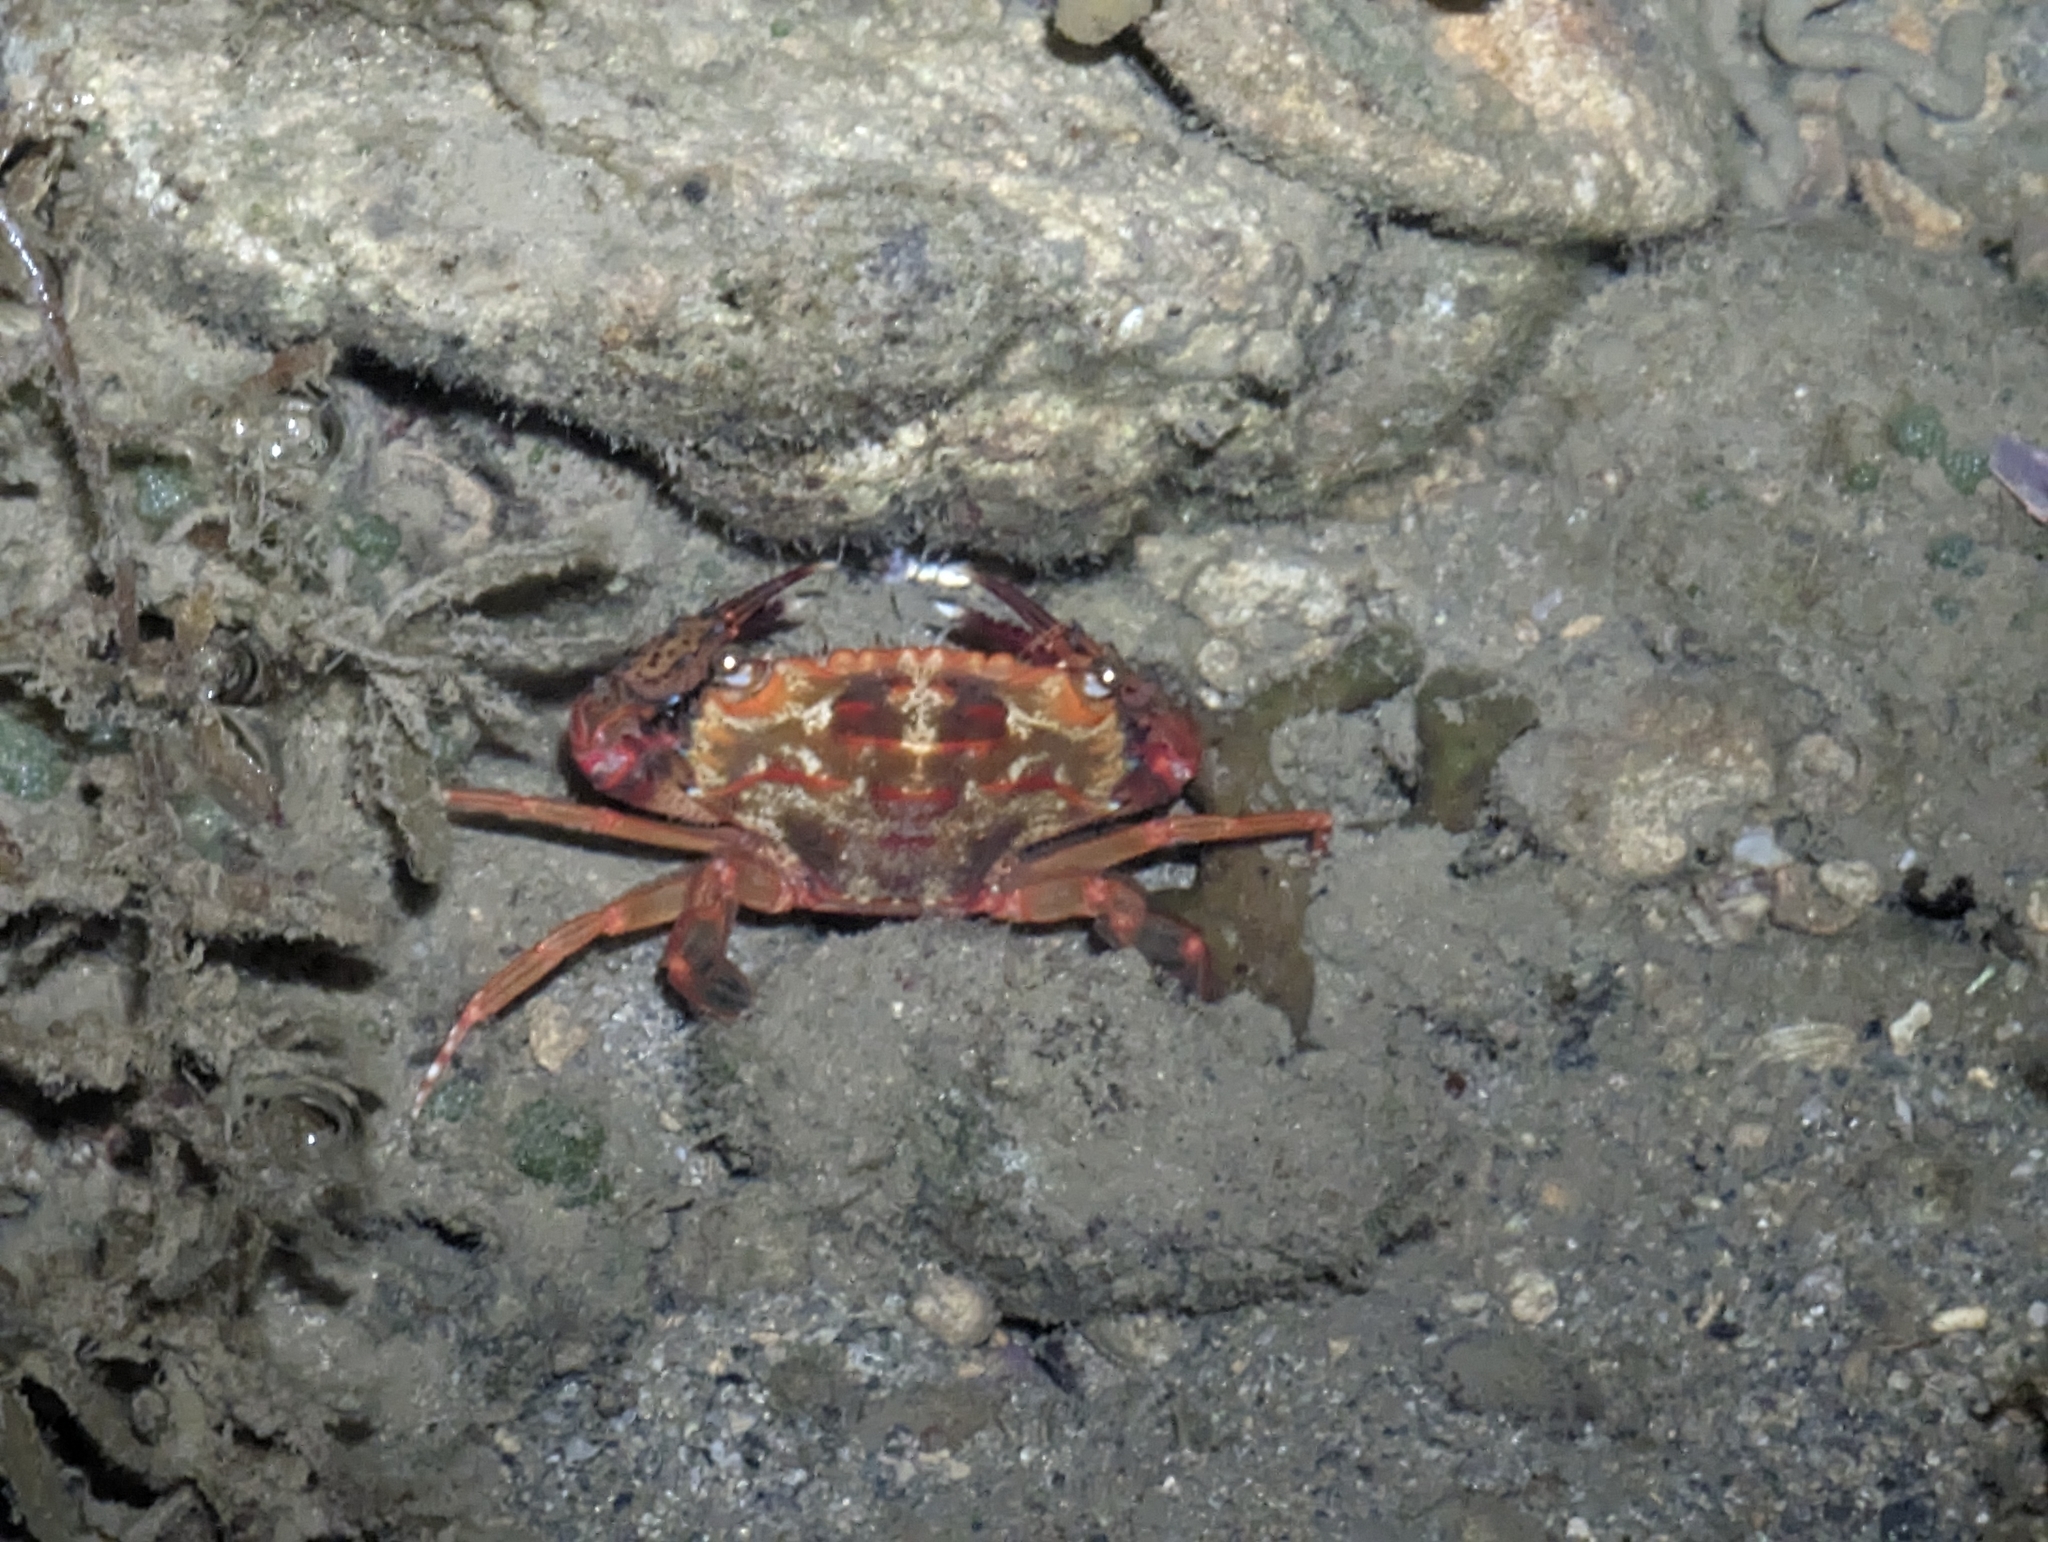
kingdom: Animalia
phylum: Arthropoda
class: Malacostraca
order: Decapoda
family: Portunidae
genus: Thalamita
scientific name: Thalamita pelsarti
